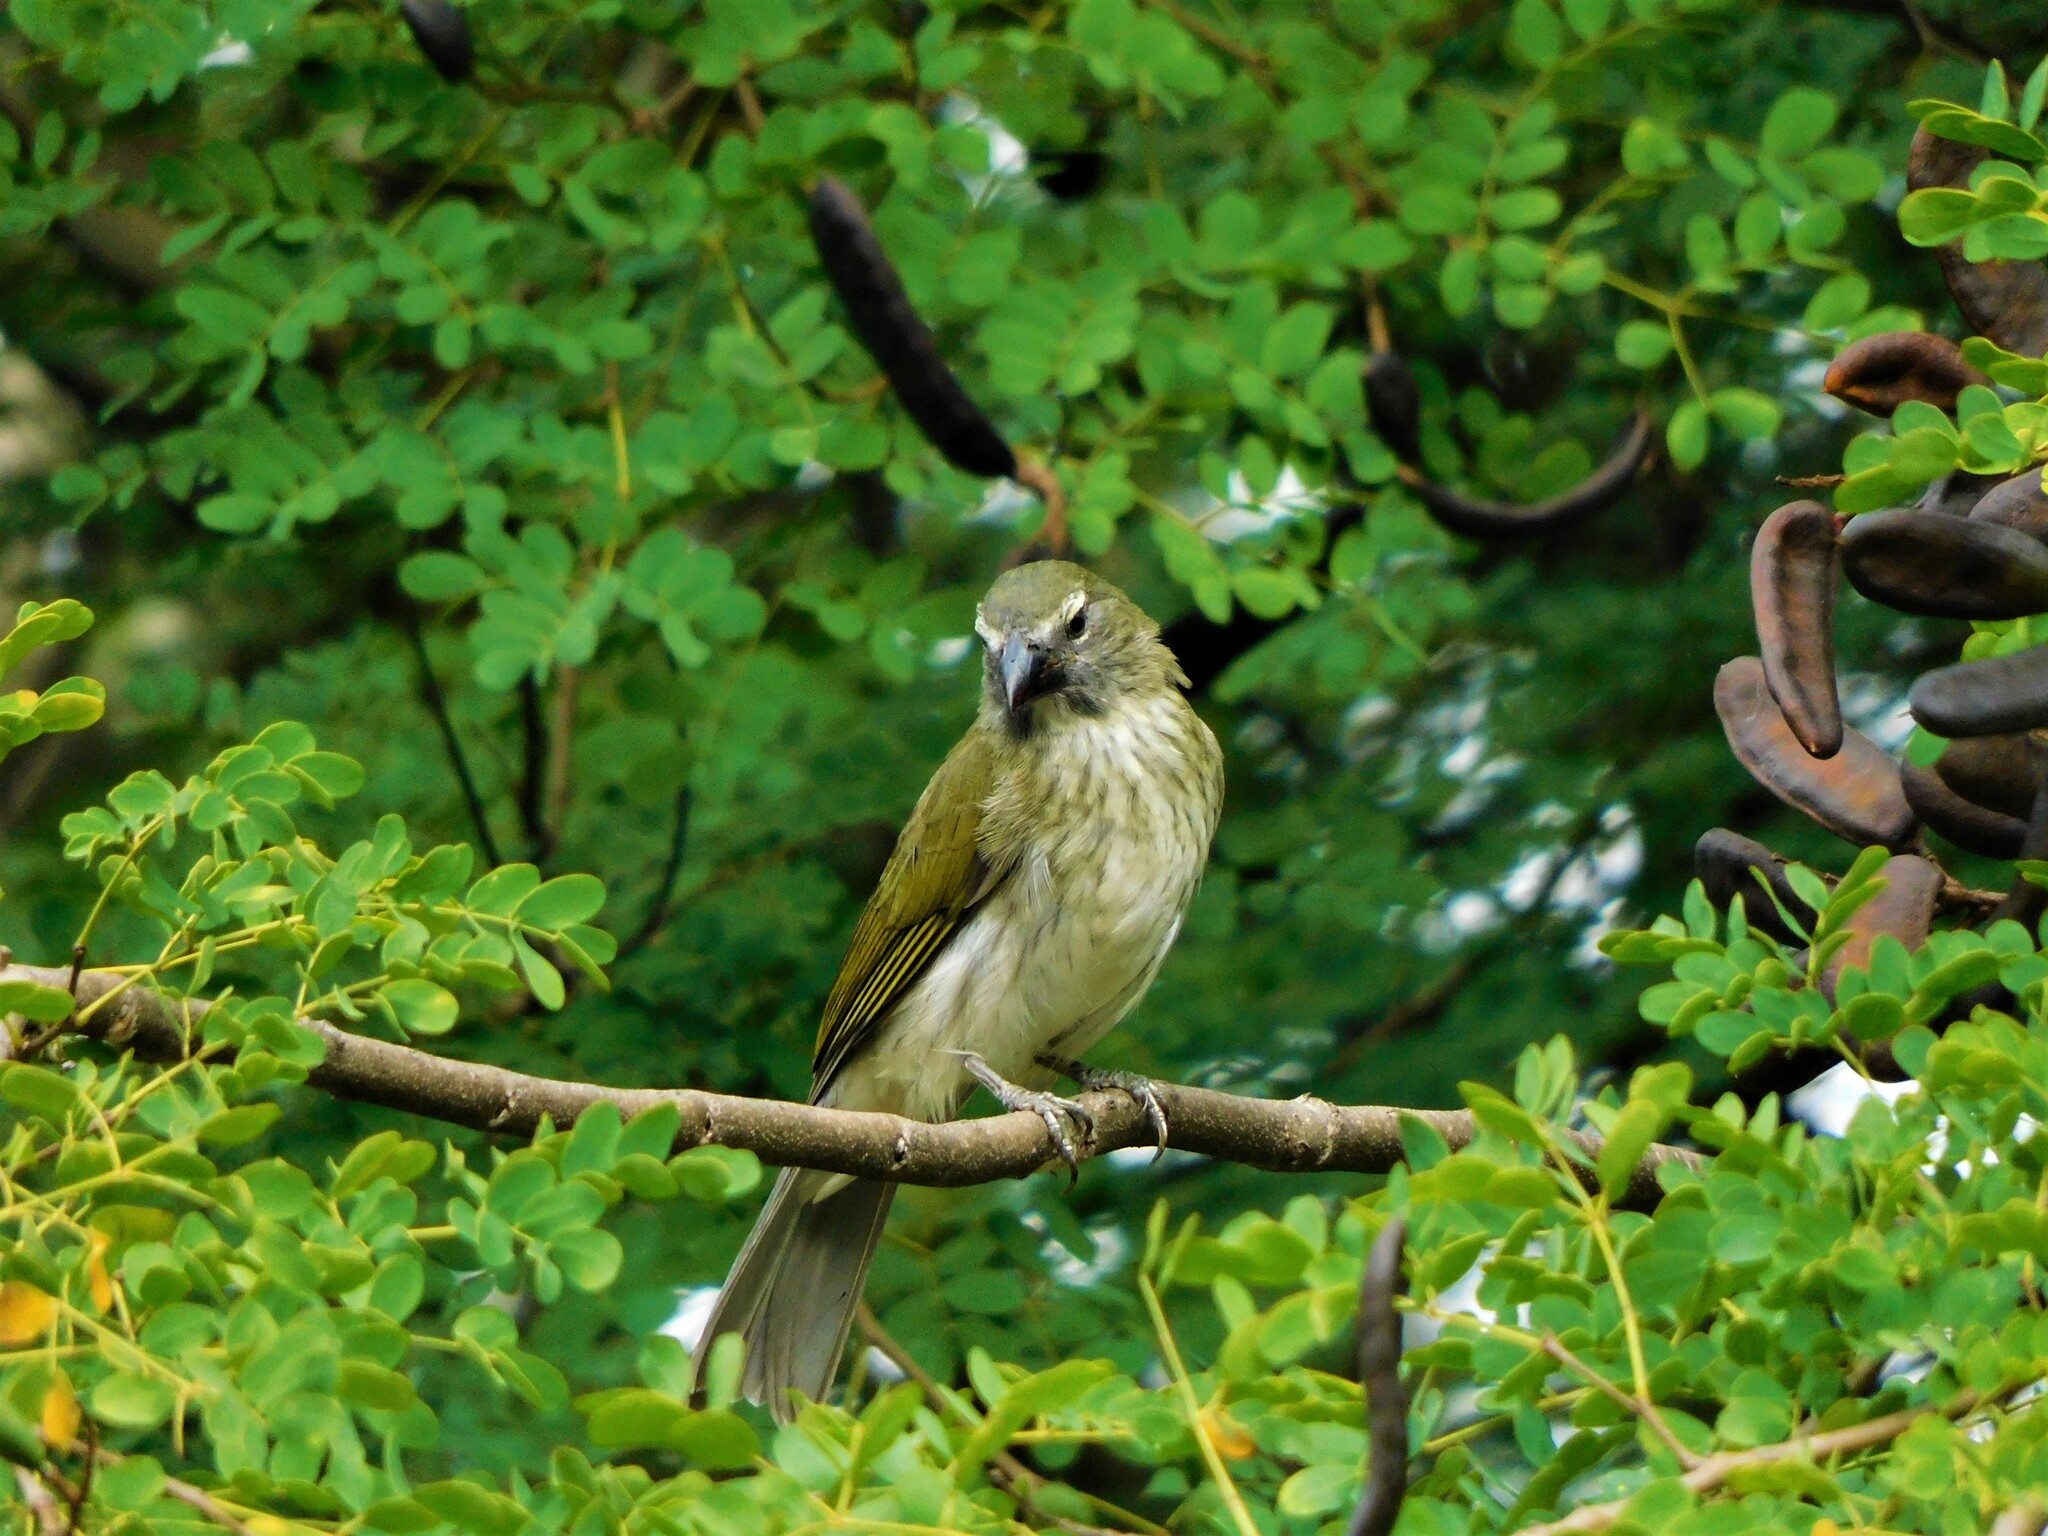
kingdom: Animalia
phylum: Chordata
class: Aves
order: Passeriformes
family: Thraupidae
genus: Saltator
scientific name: Saltator striatipectus
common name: Streaked saltator
